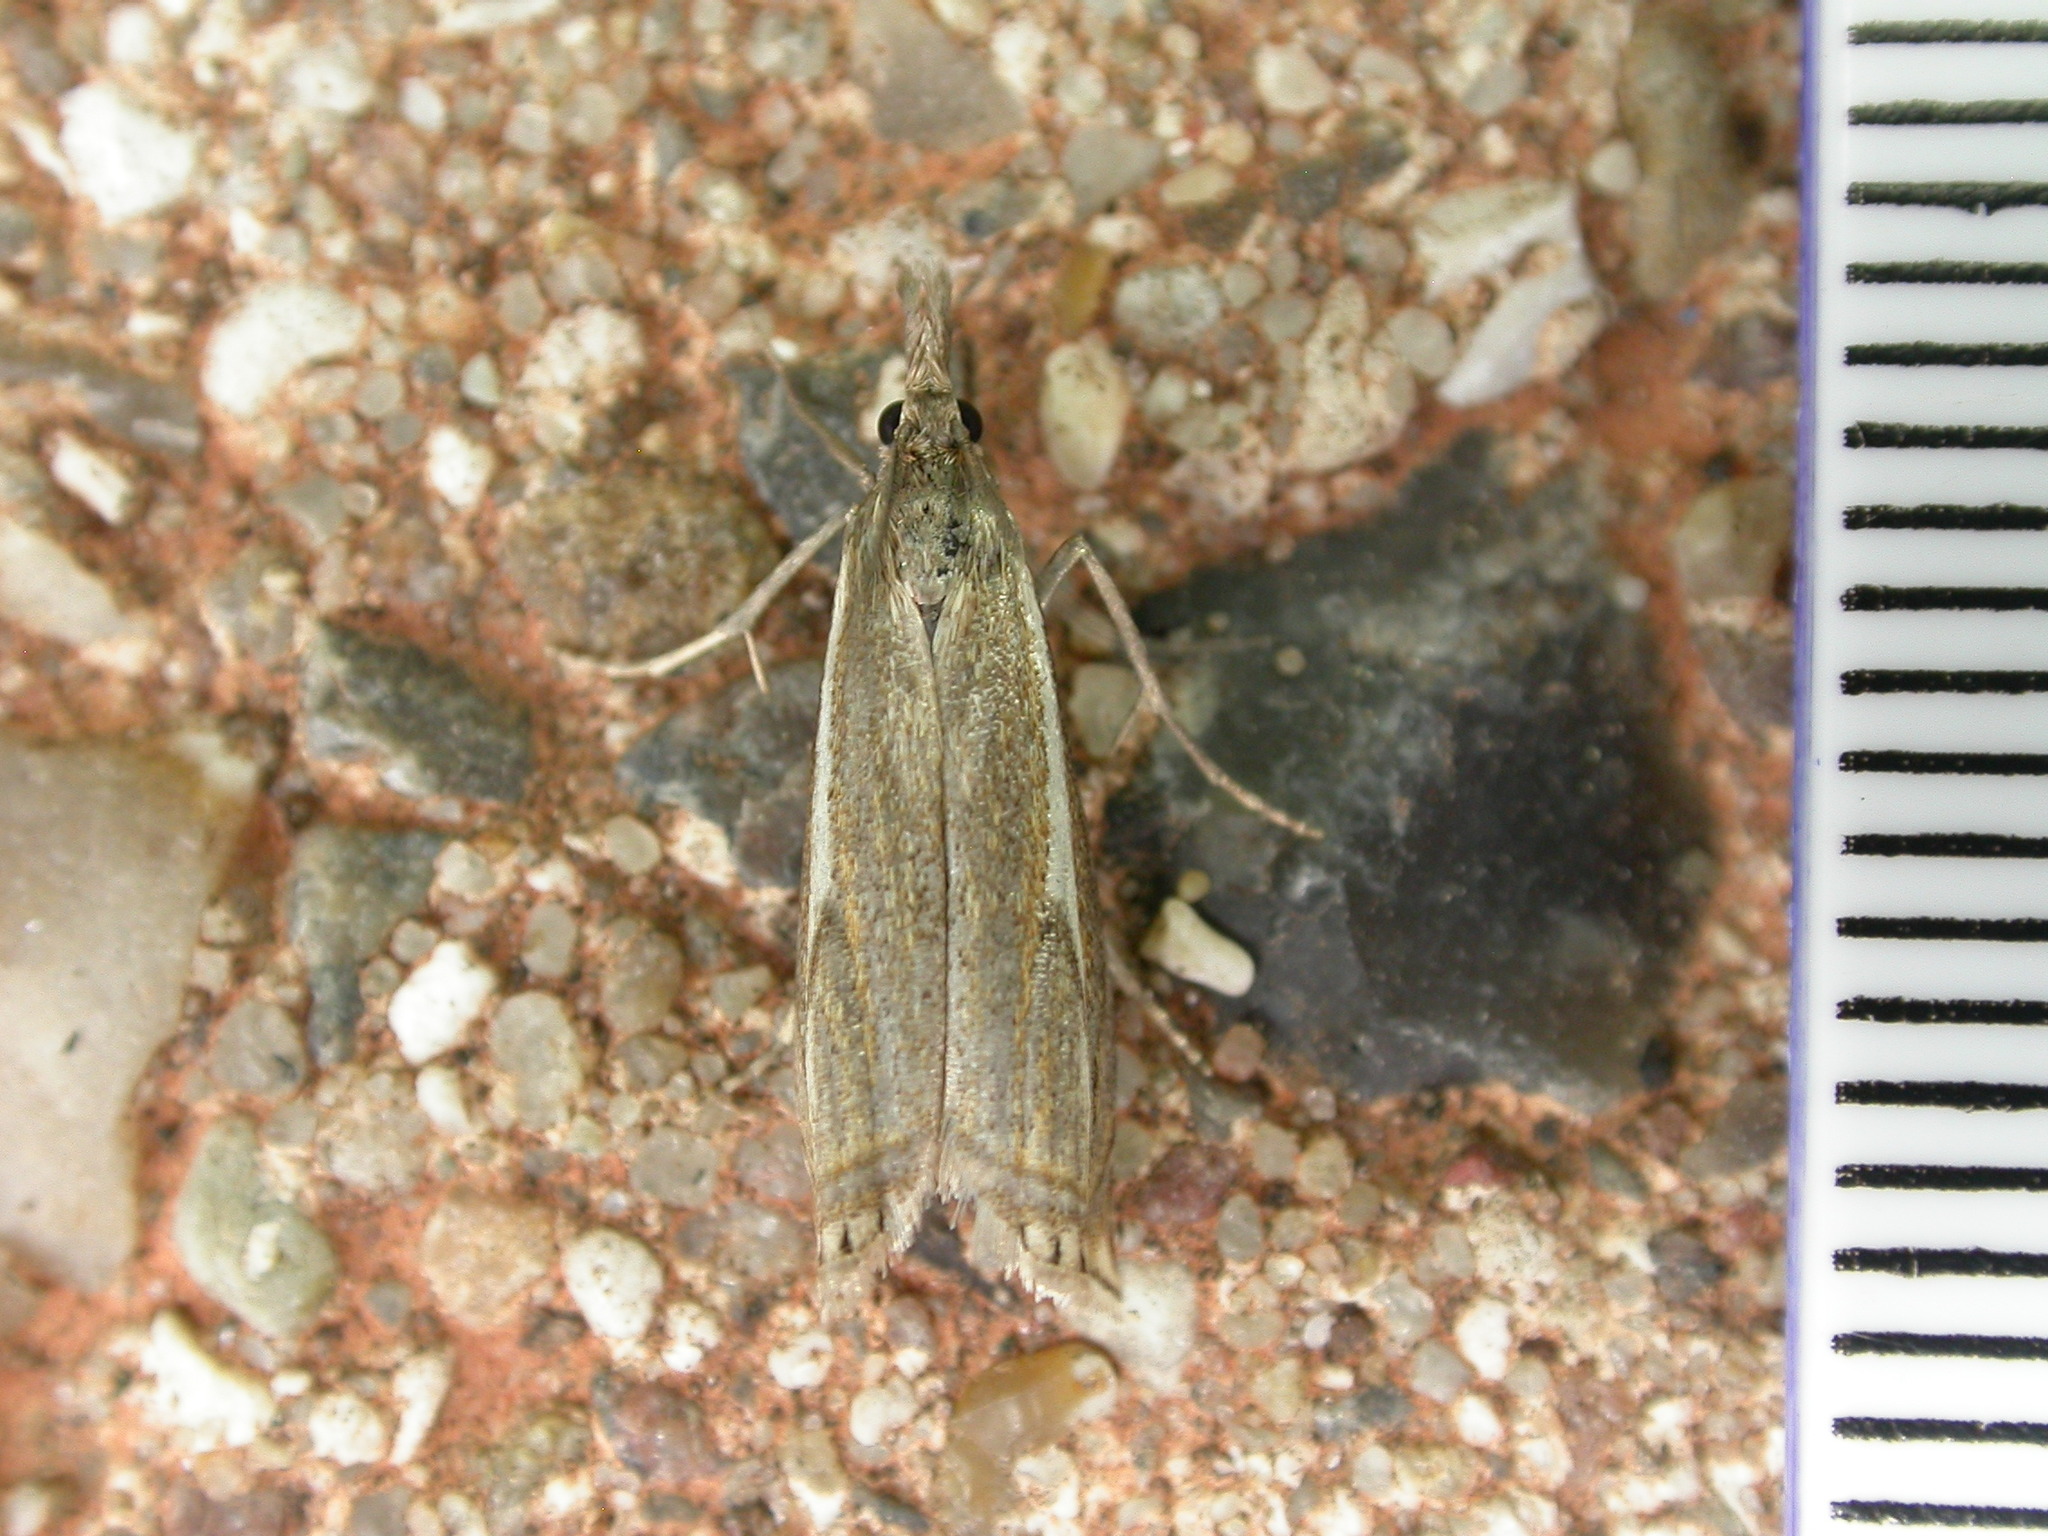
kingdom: Animalia
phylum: Arthropoda
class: Insecta
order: Lepidoptera
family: Crambidae
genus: Crambus
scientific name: Crambus nemorella
